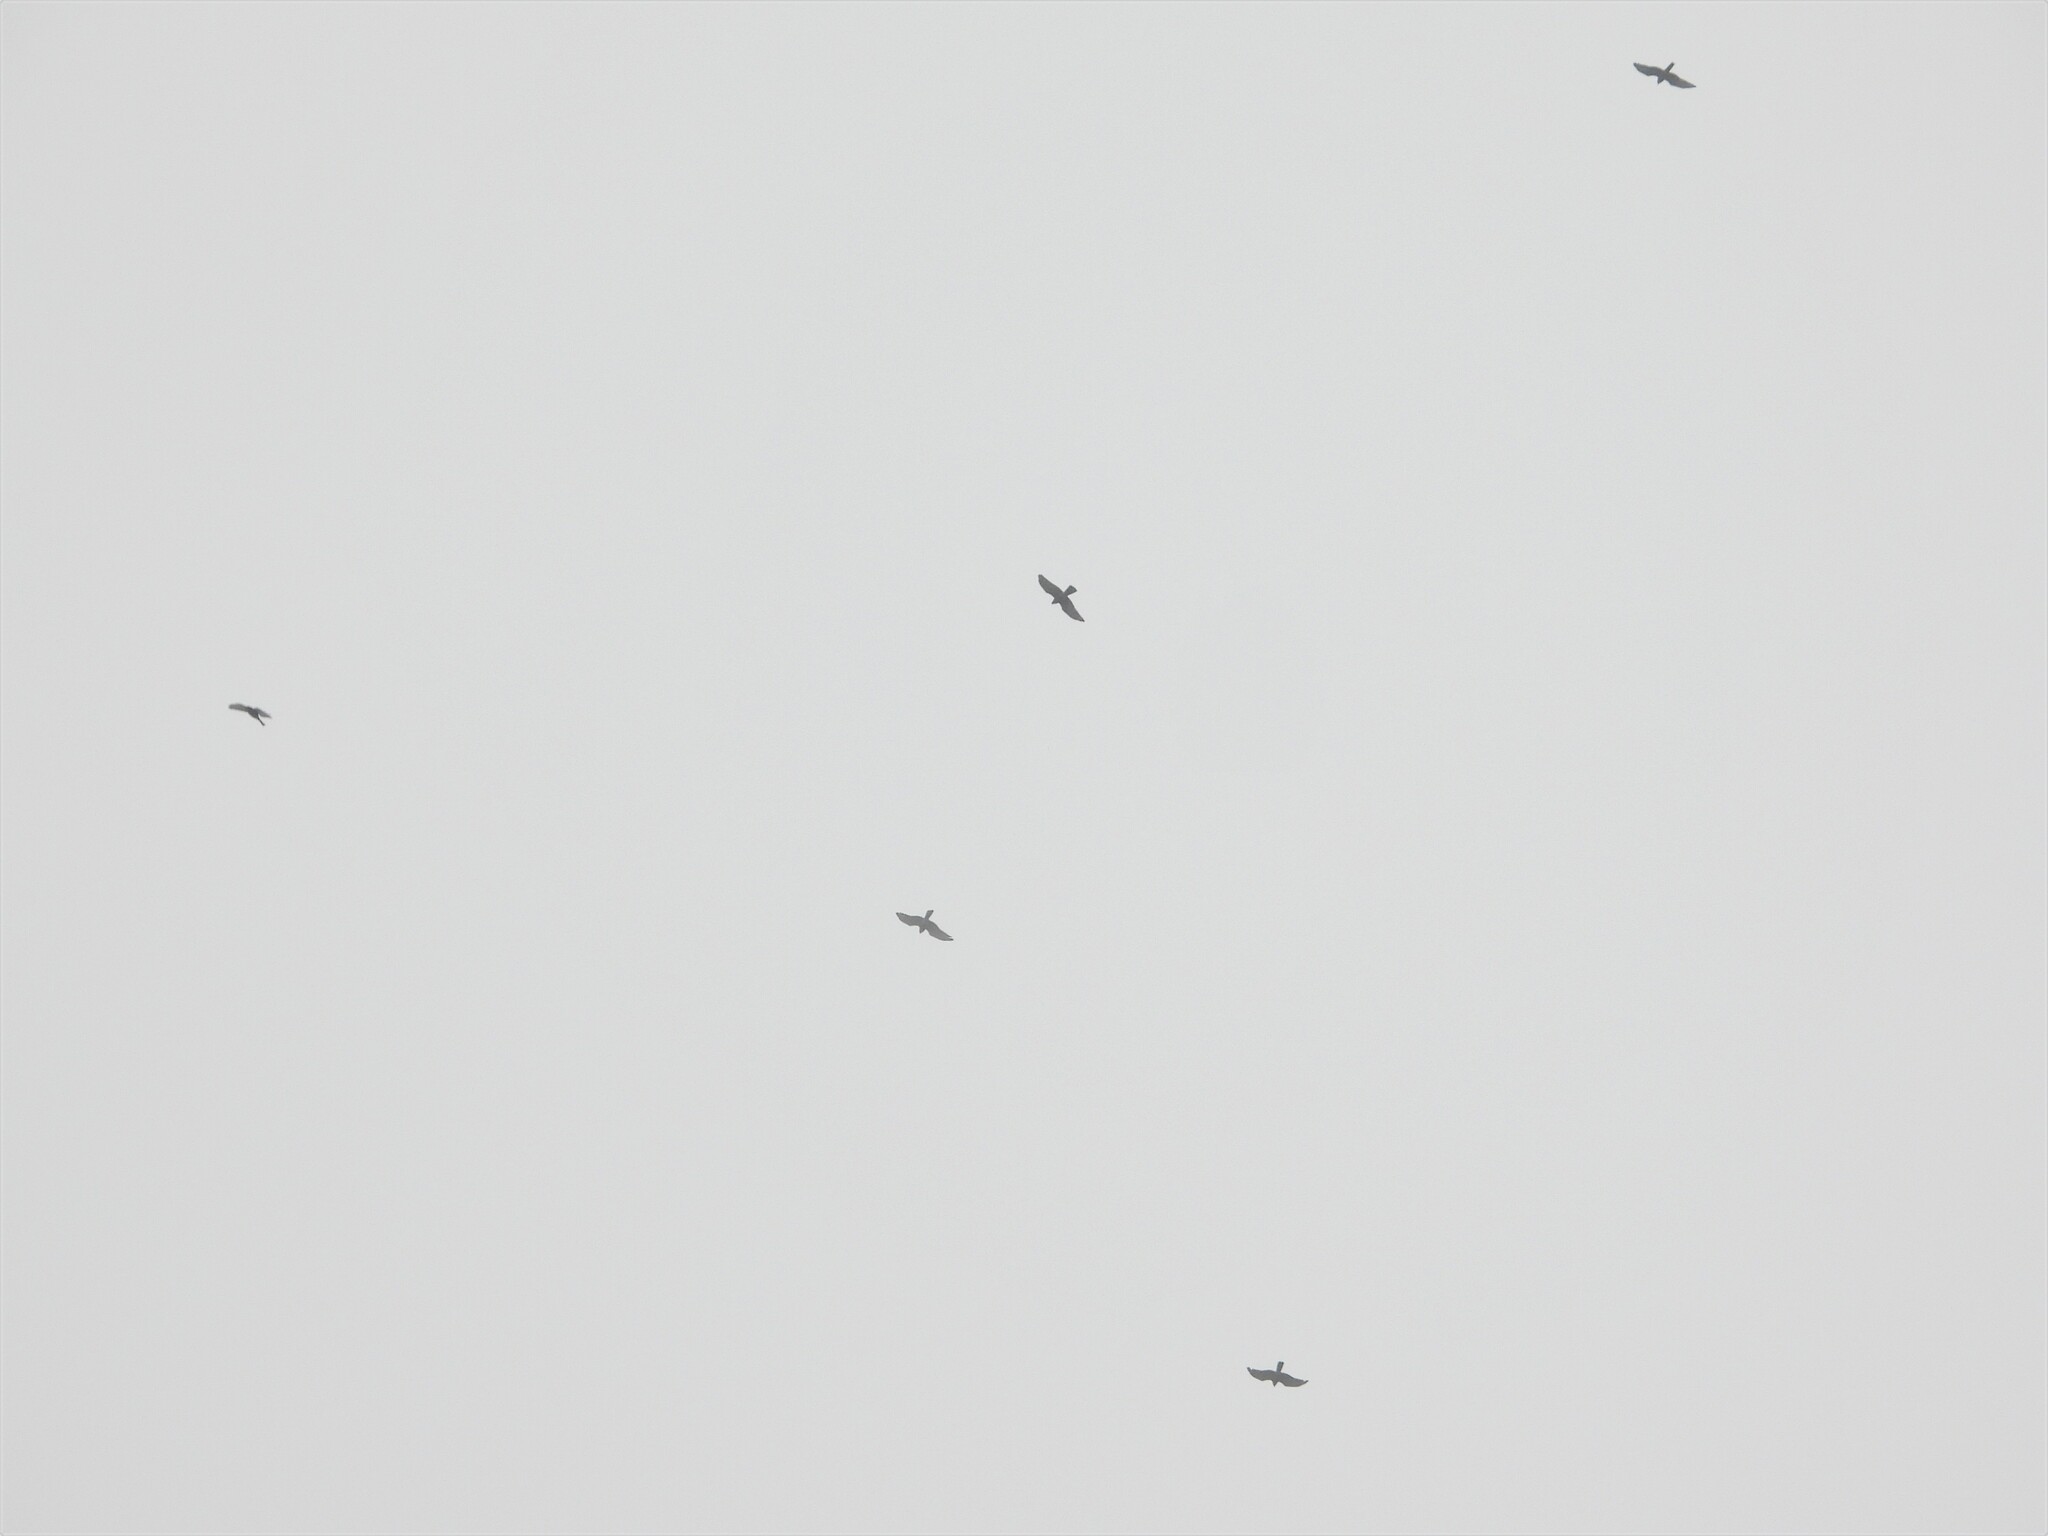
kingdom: Animalia
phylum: Chordata
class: Aves
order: Accipitriformes
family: Accipitridae
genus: Butastur
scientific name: Butastur indicus
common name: Grey-faced buzzard
